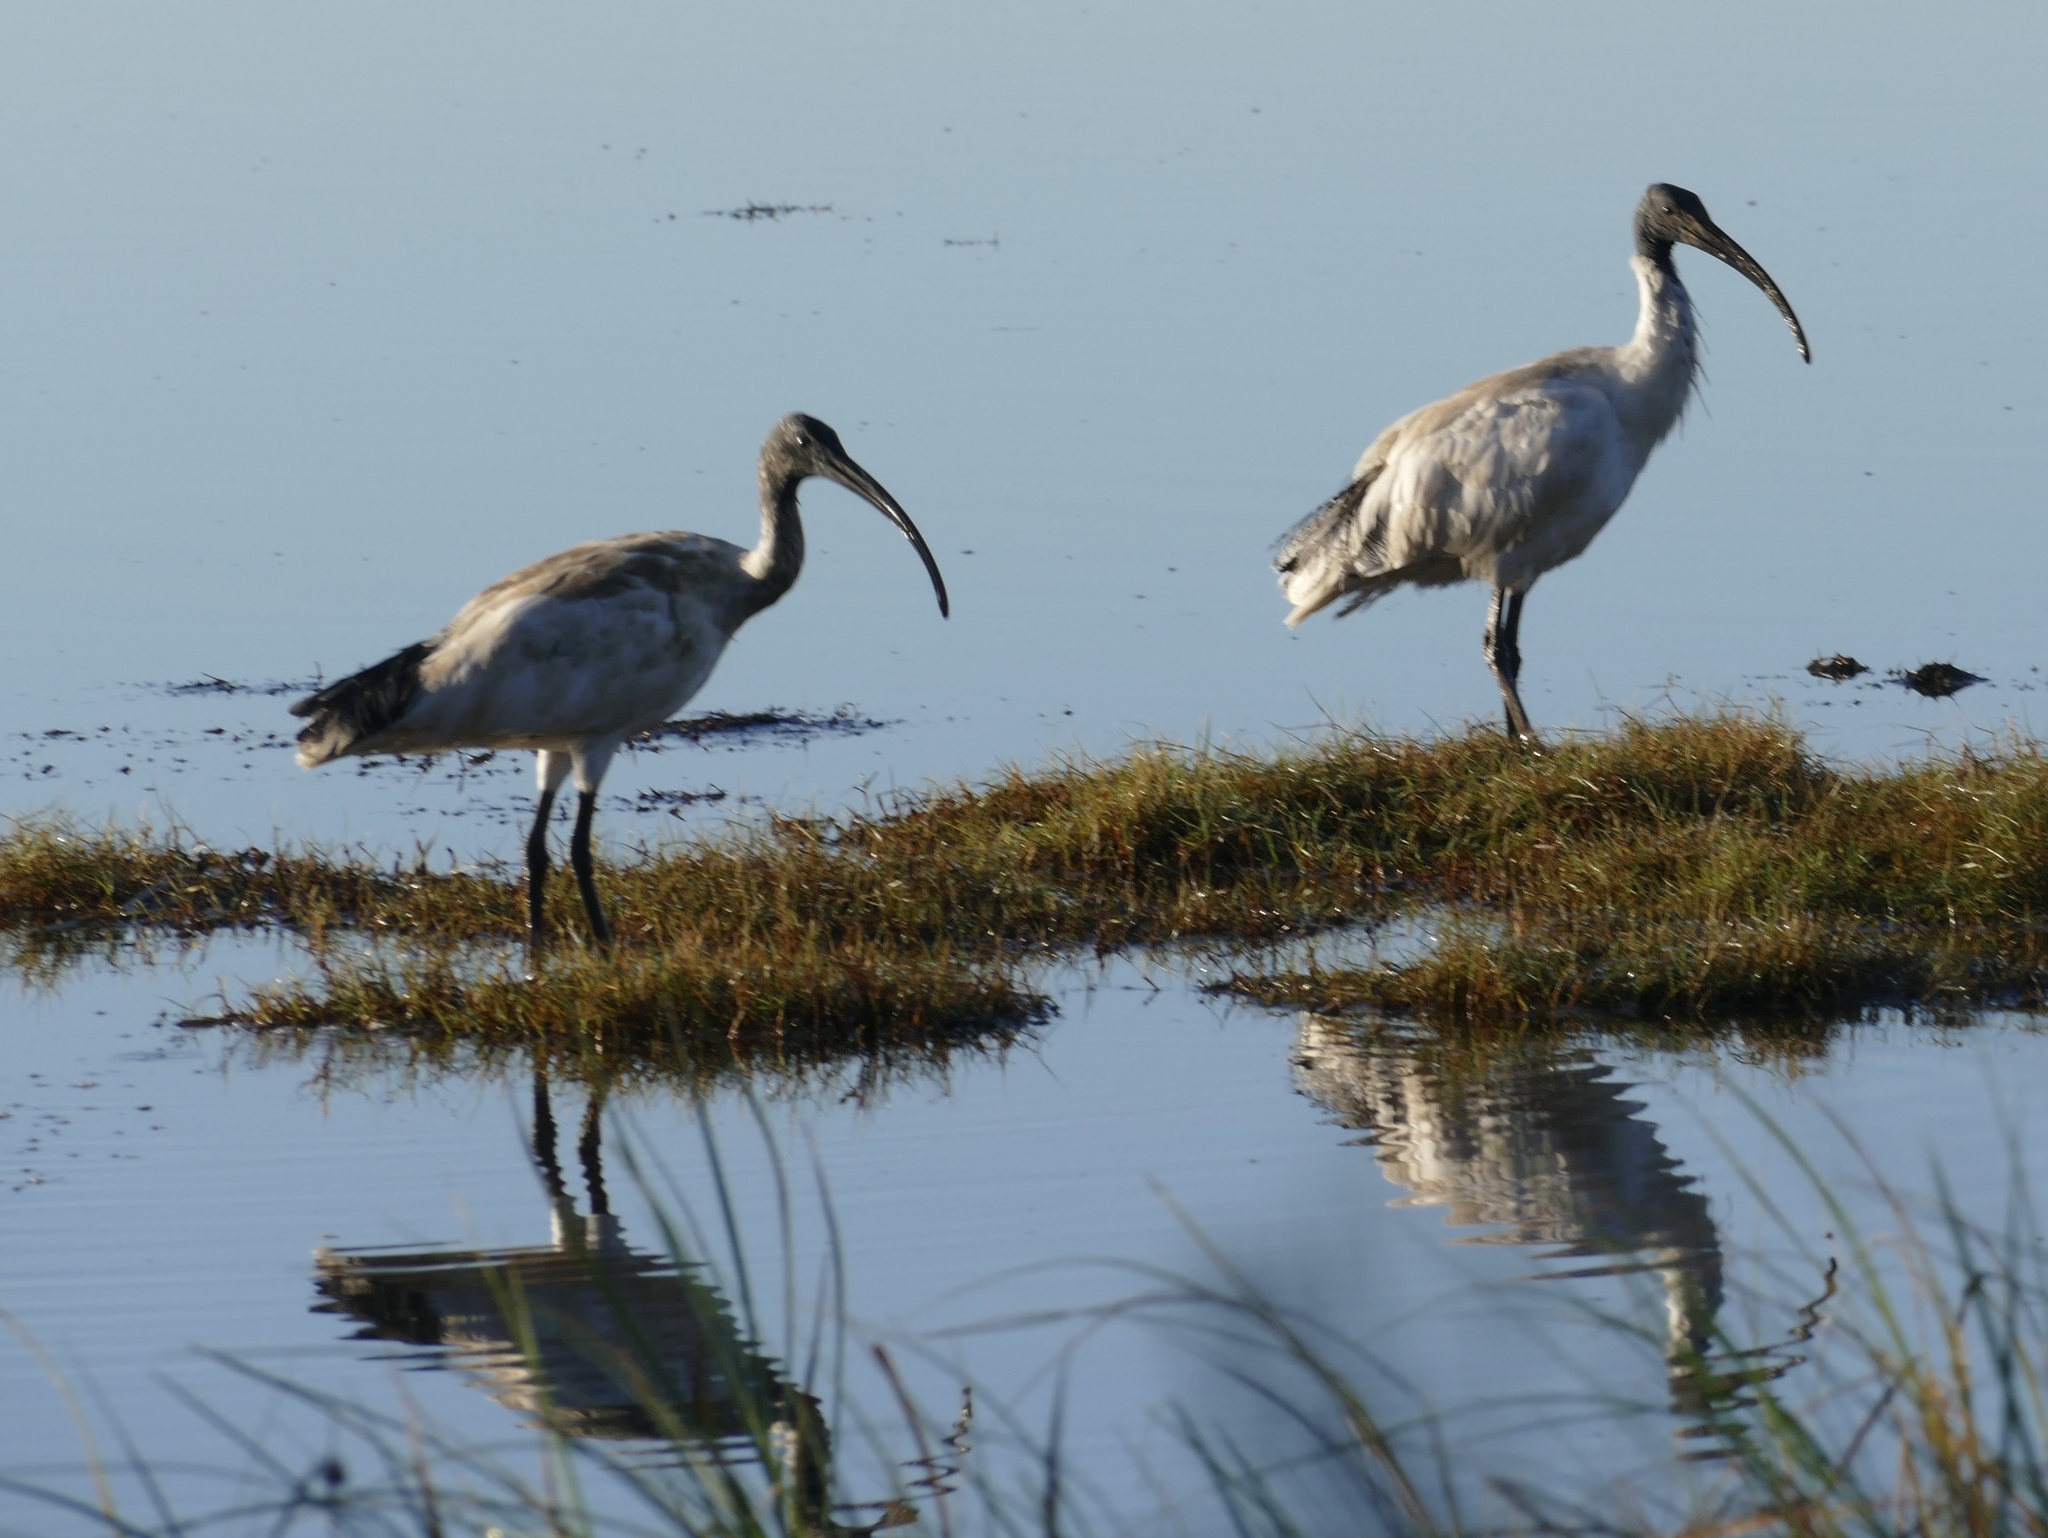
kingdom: Animalia
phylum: Chordata
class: Aves
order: Pelecaniformes
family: Threskiornithidae
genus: Threskiornis
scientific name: Threskiornis molucca
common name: Australian white ibis
